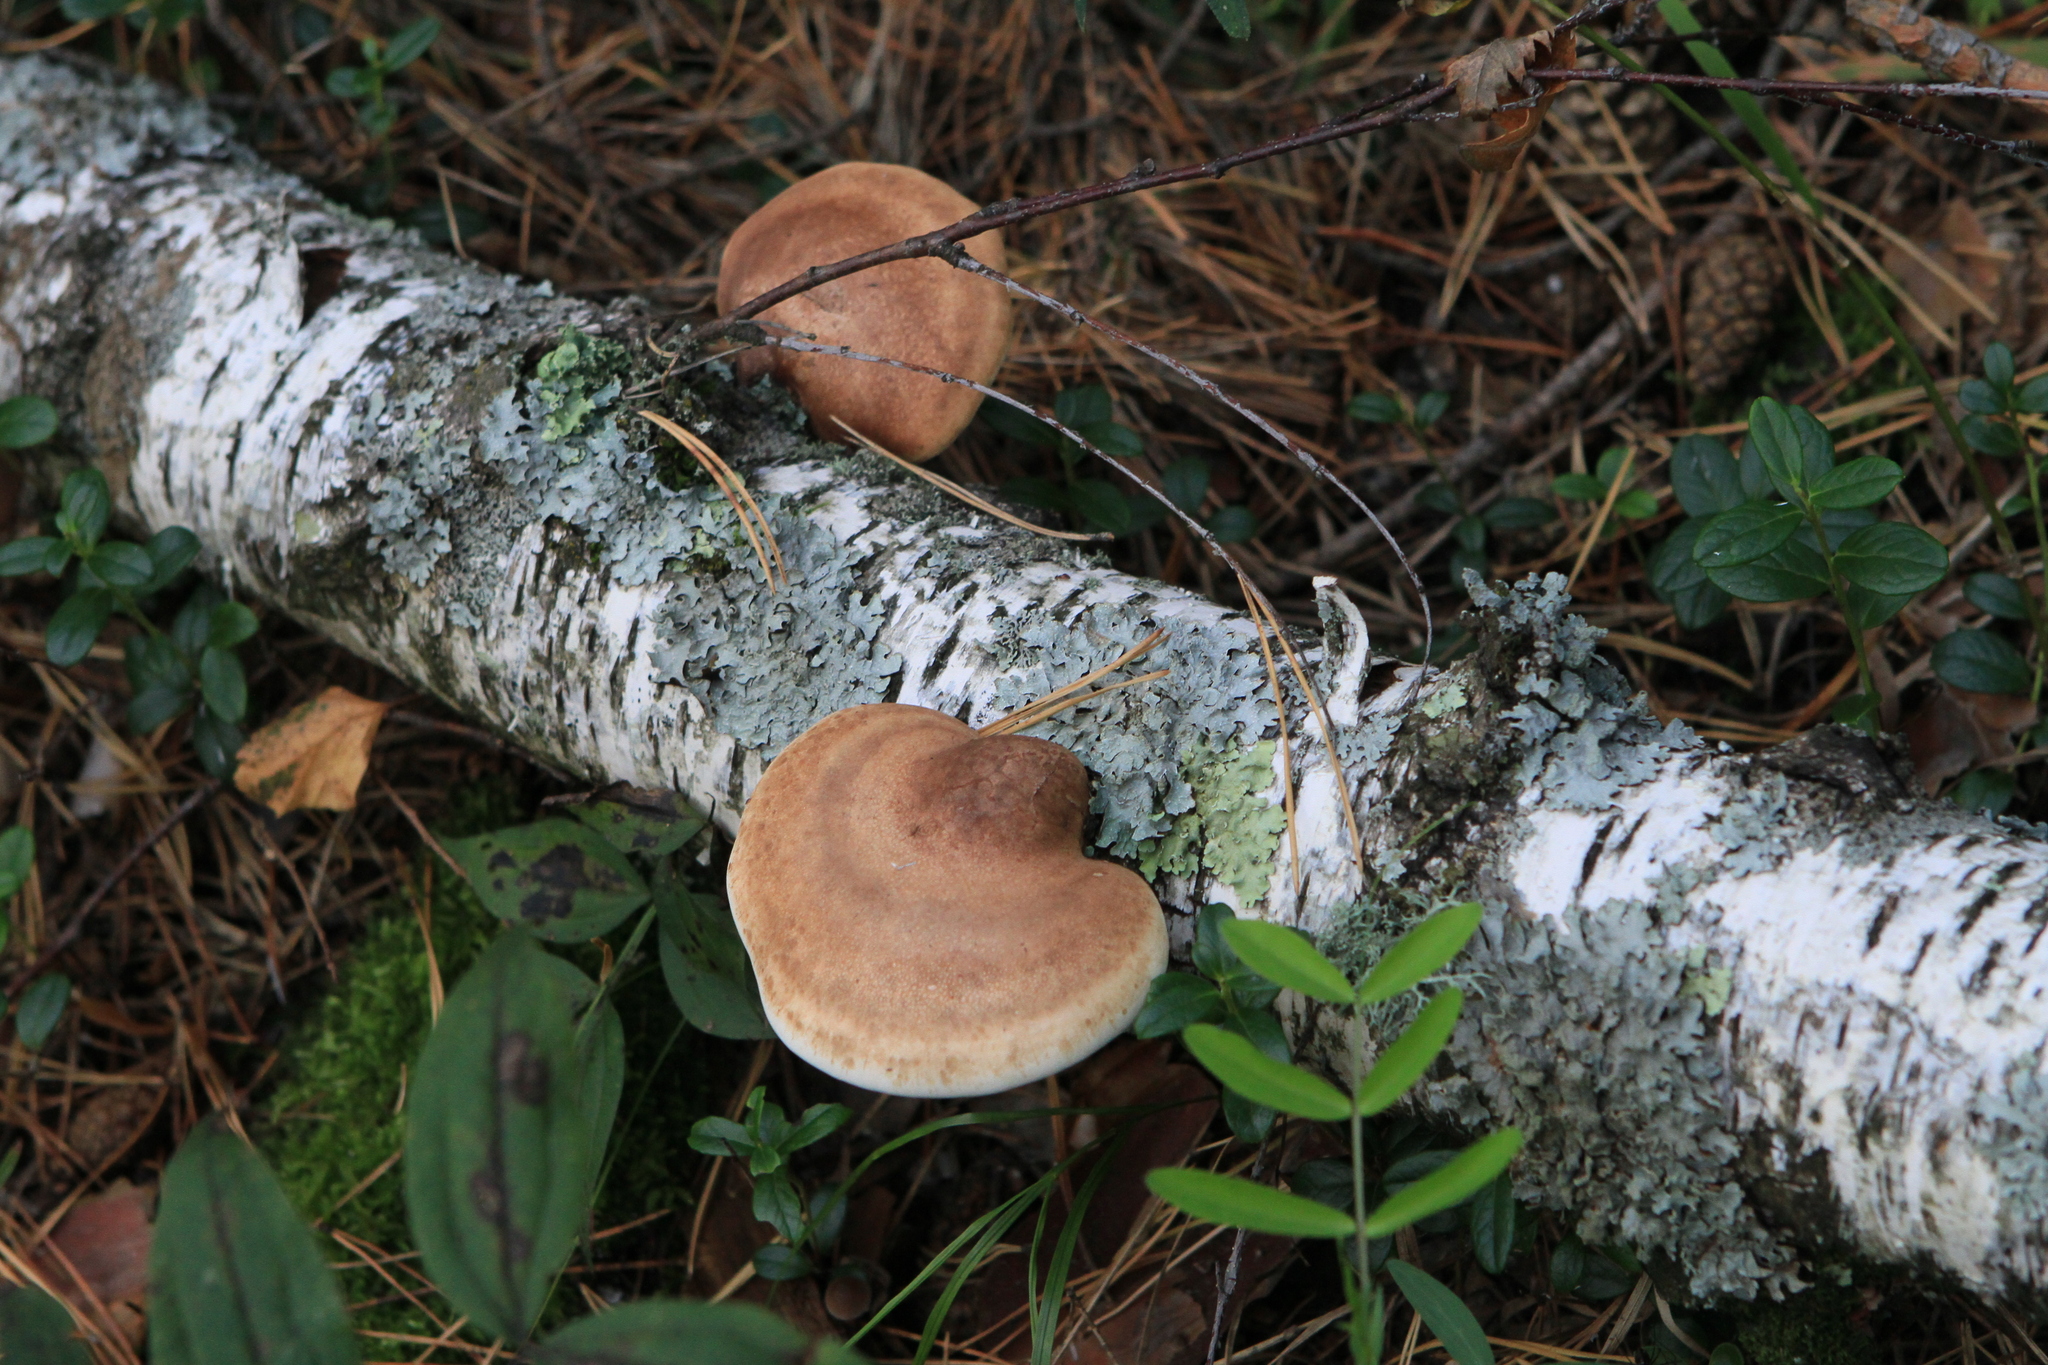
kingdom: Fungi
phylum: Basidiomycota
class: Agaricomycetes
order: Polyporales
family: Fomitopsidaceae
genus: Fomitopsis
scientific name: Fomitopsis betulina
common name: Birch polypore
